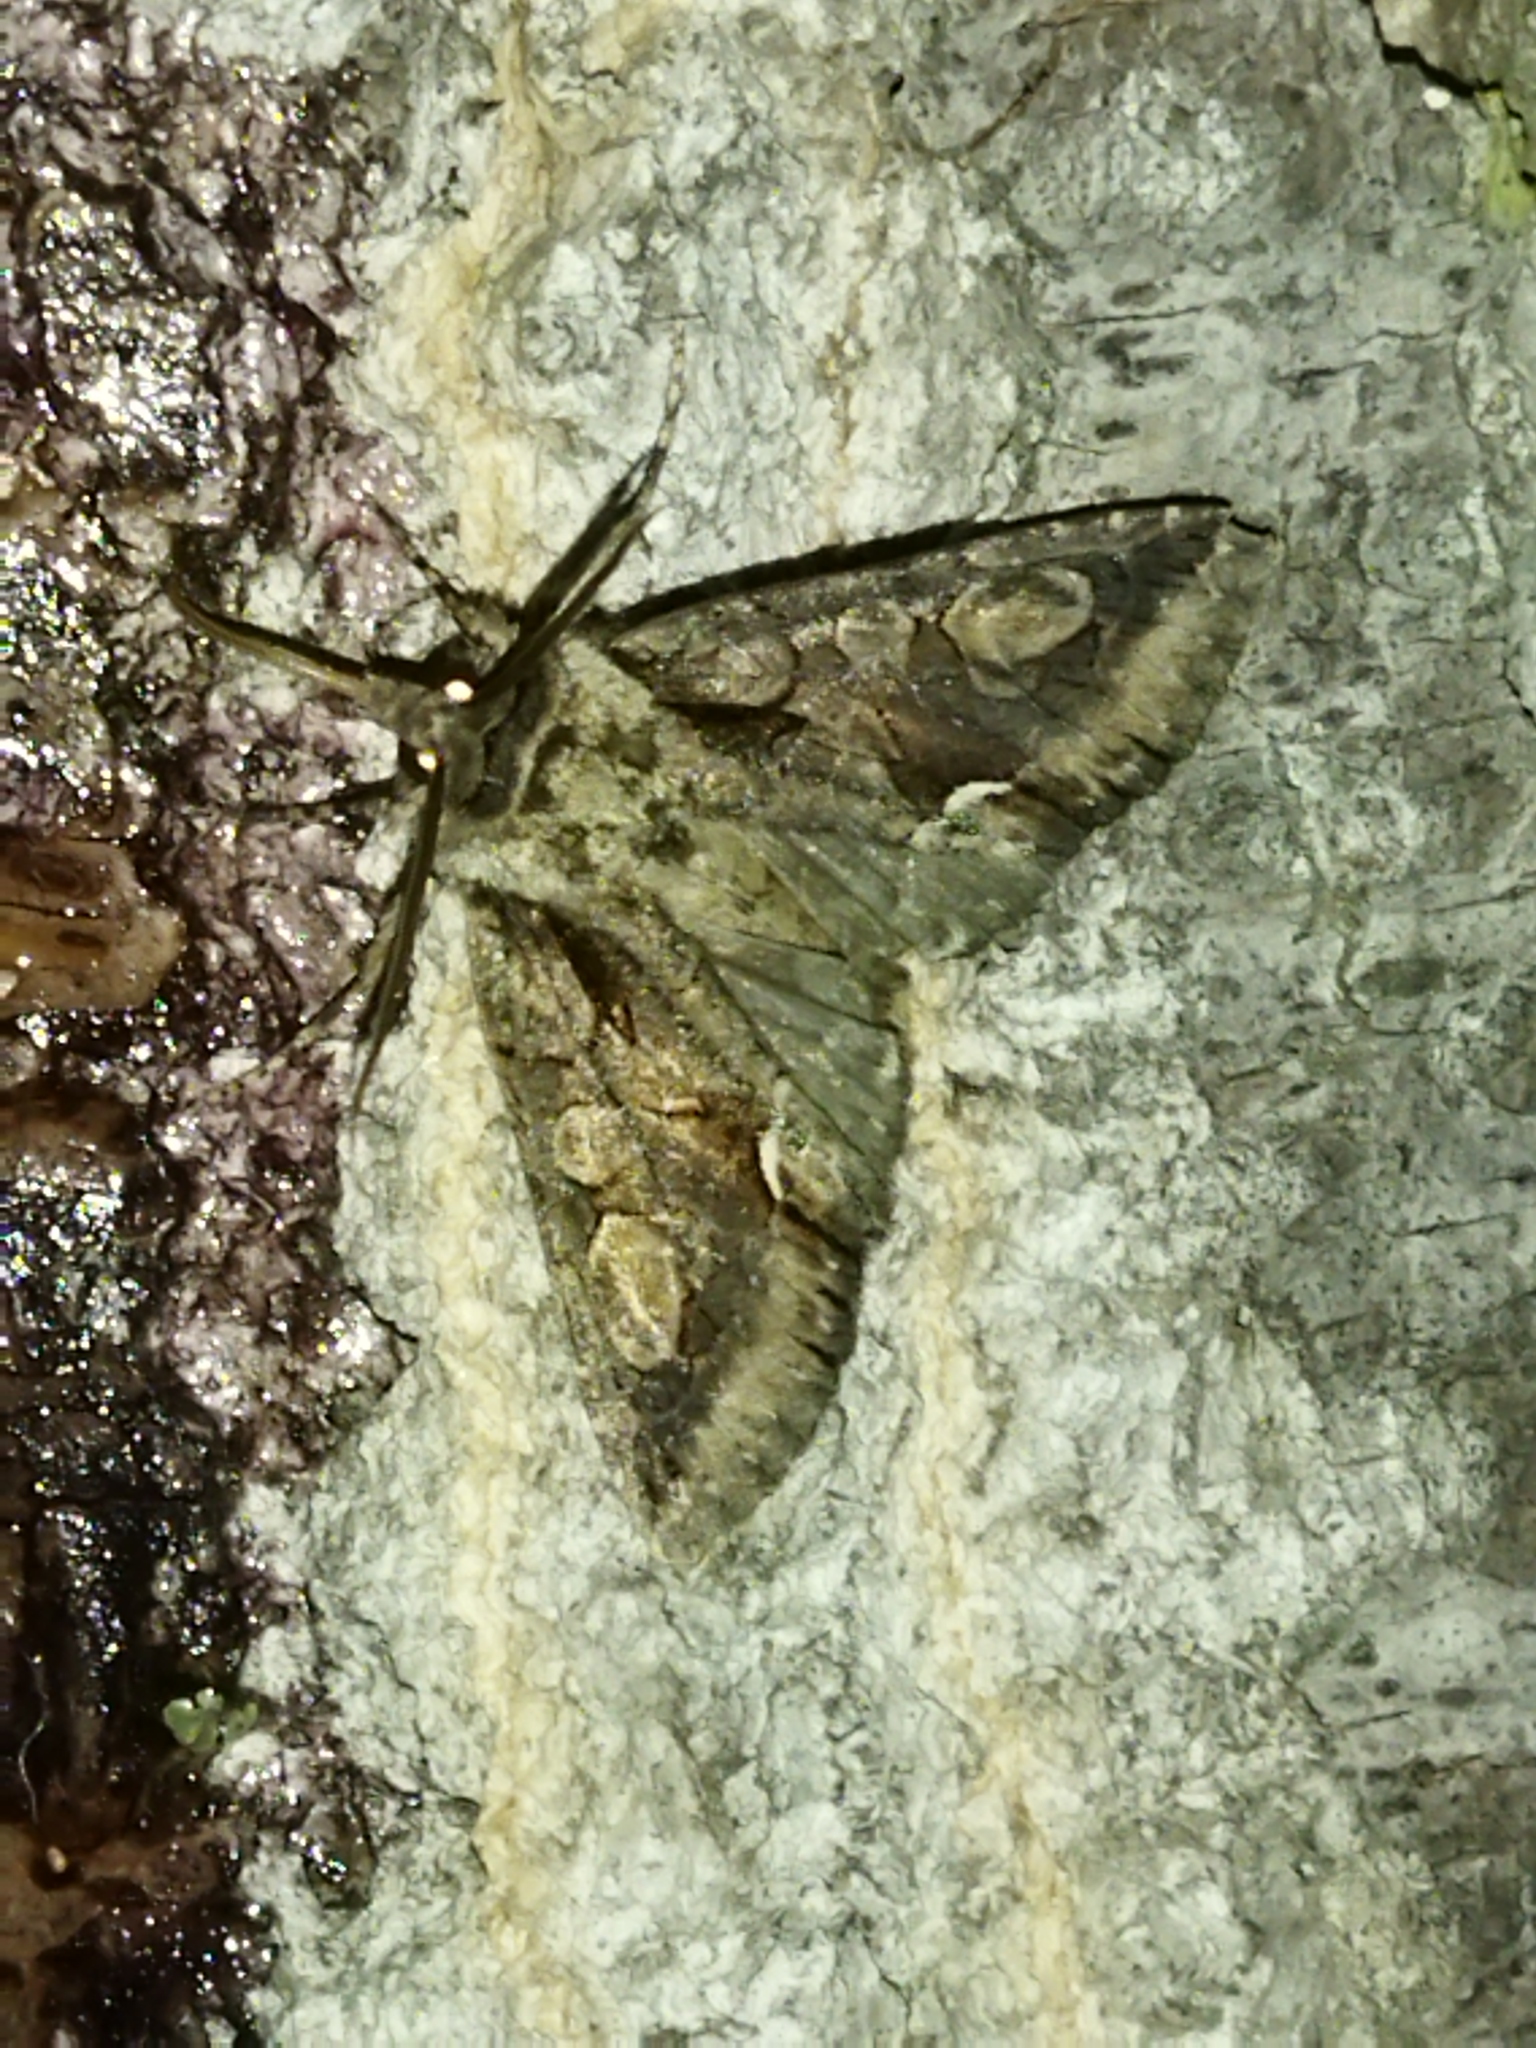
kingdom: Animalia
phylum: Arthropoda
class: Insecta
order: Lepidoptera
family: Noctuidae
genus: Allophyes
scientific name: Allophyes oxyacanthae
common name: Green-brindled crescent
